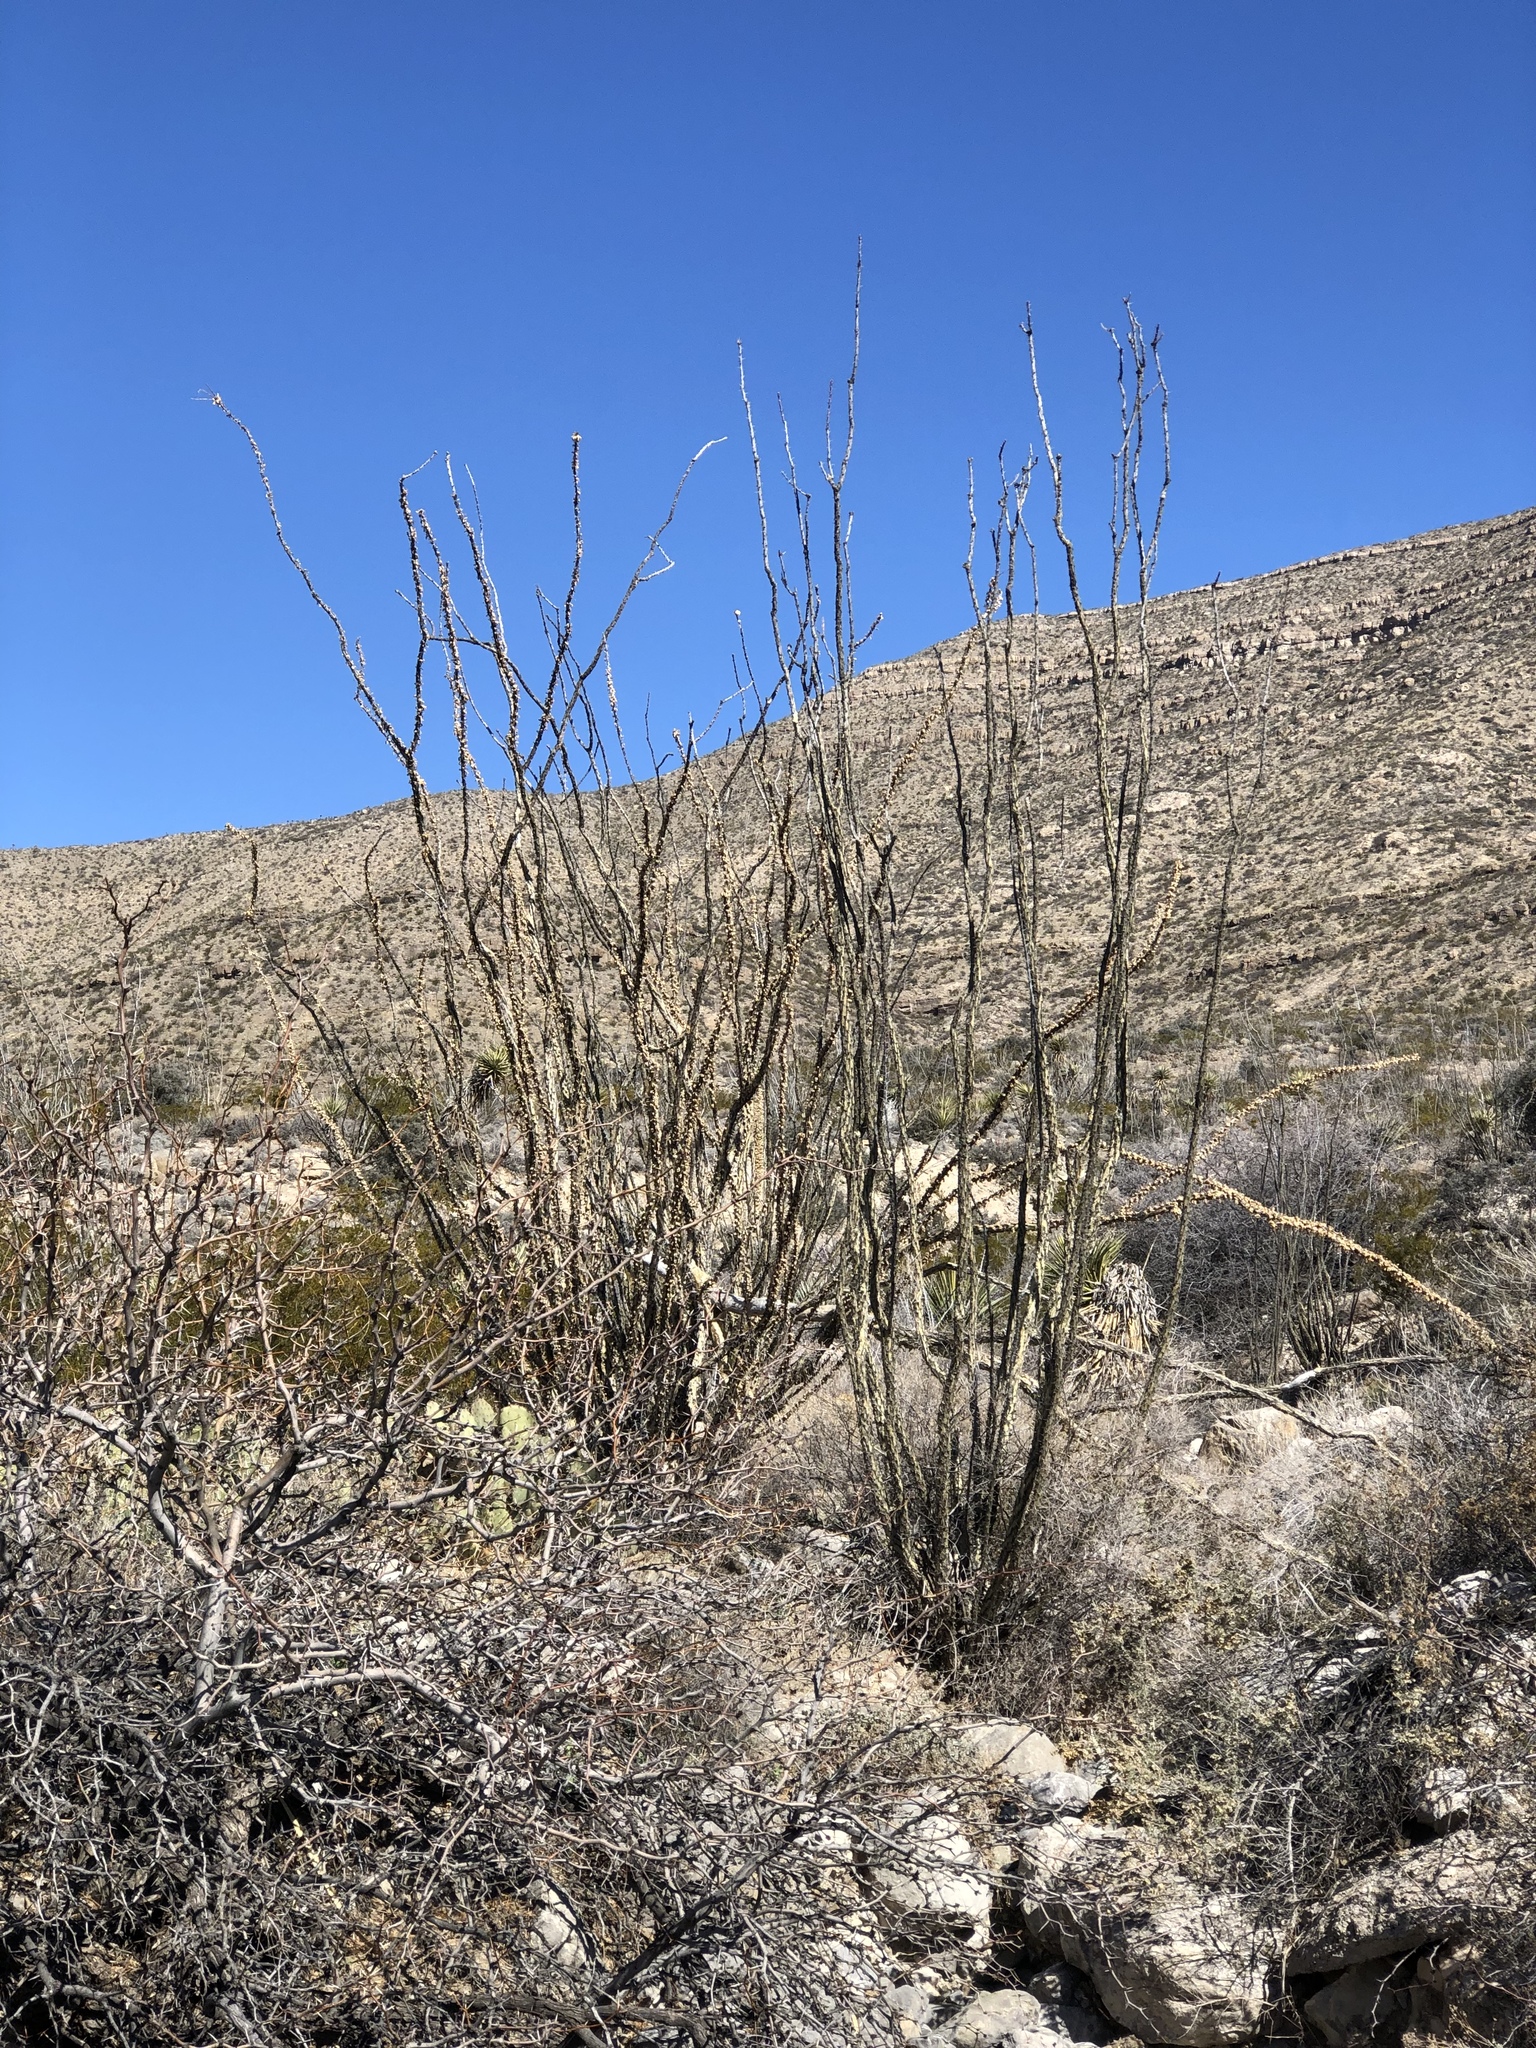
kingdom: Plantae
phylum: Tracheophyta
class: Magnoliopsida
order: Ericales
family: Fouquieriaceae
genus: Fouquieria
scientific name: Fouquieria splendens
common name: Vine-cactus
